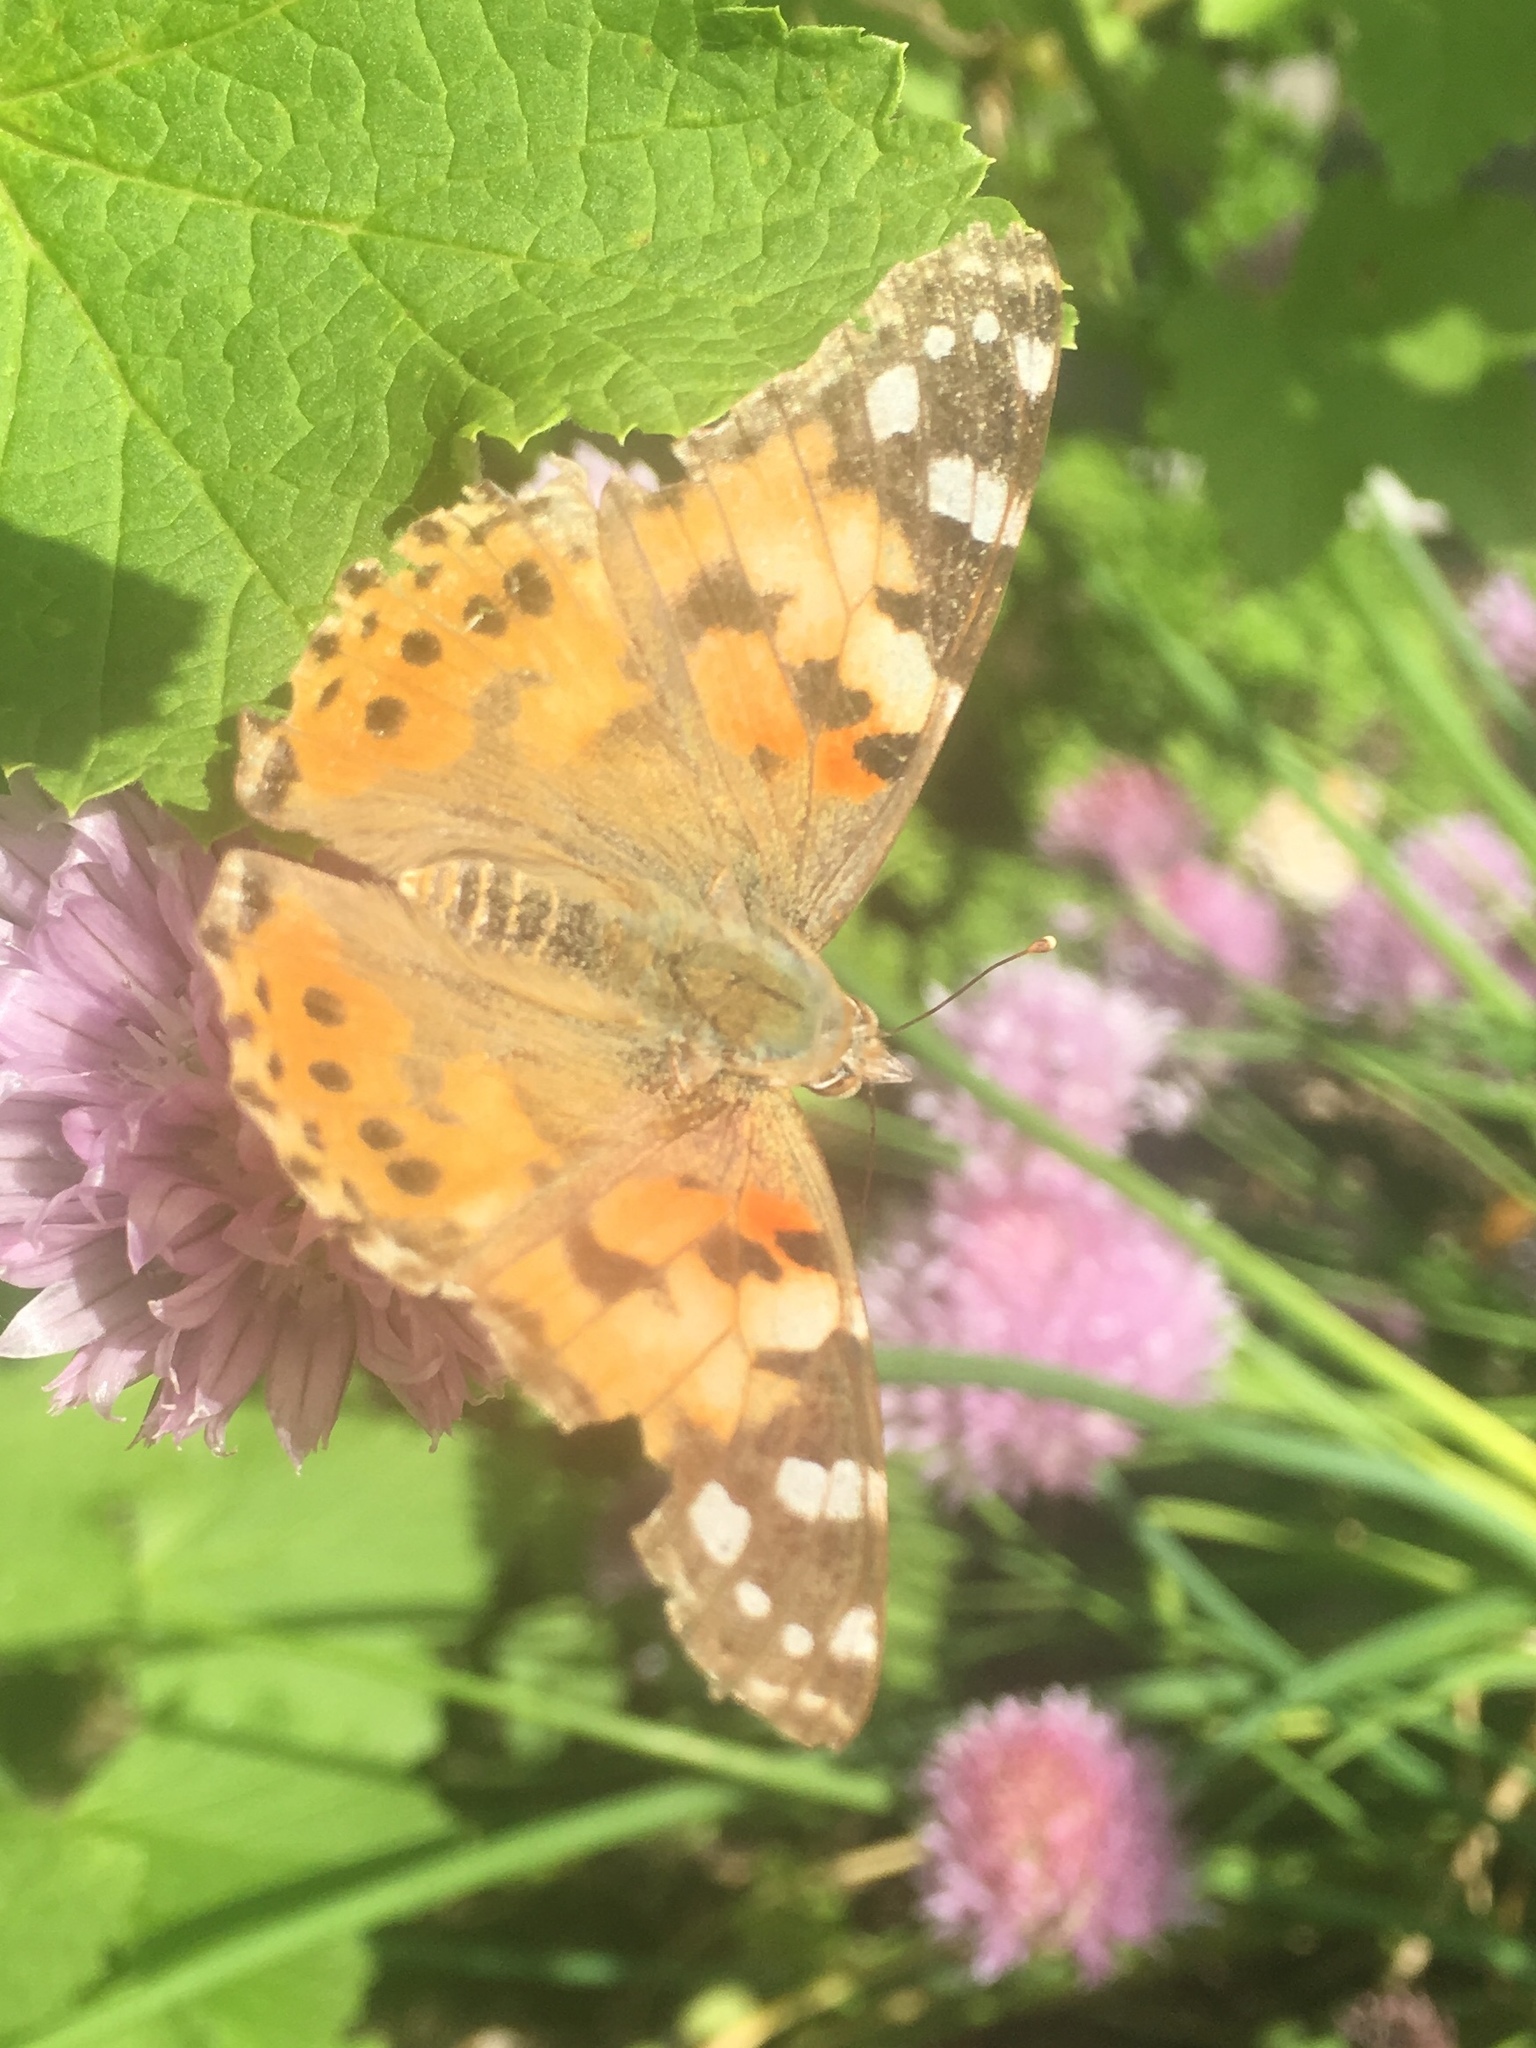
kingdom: Animalia
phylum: Arthropoda
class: Insecta
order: Lepidoptera
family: Nymphalidae
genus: Vanessa
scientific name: Vanessa cardui
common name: Painted lady
